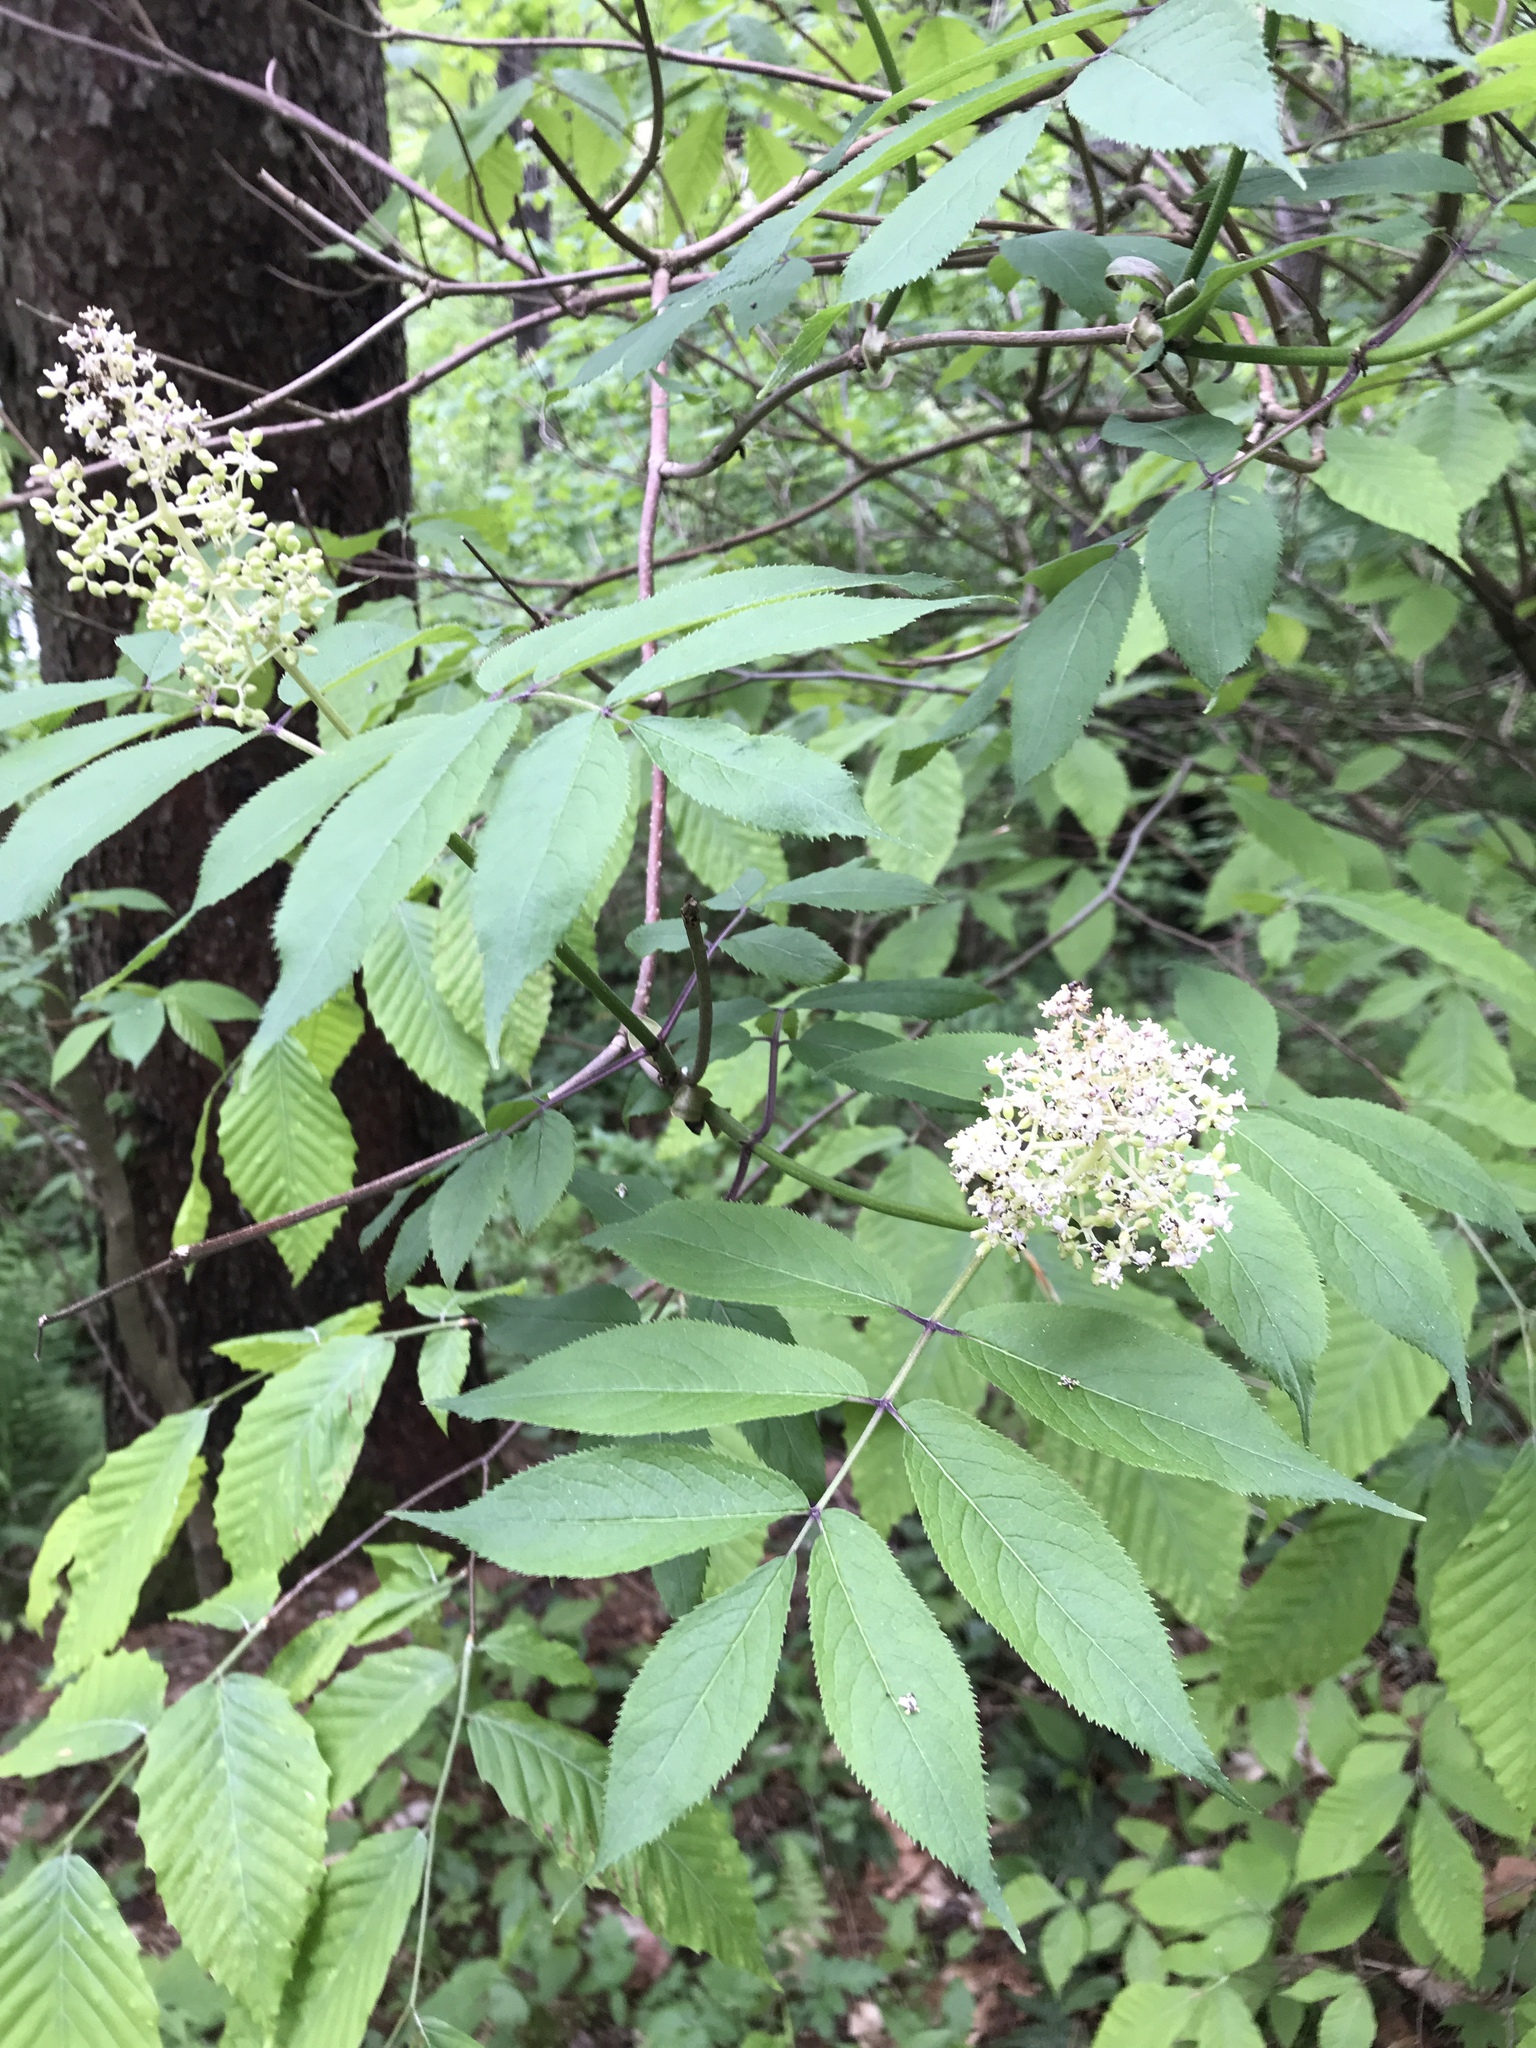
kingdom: Plantae
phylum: Tracheophyta
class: Magnoliopsida
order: Dipsacales
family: Viburnaceae
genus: Sambucus
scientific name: Sambucus racemosa
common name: Red-berried elder
